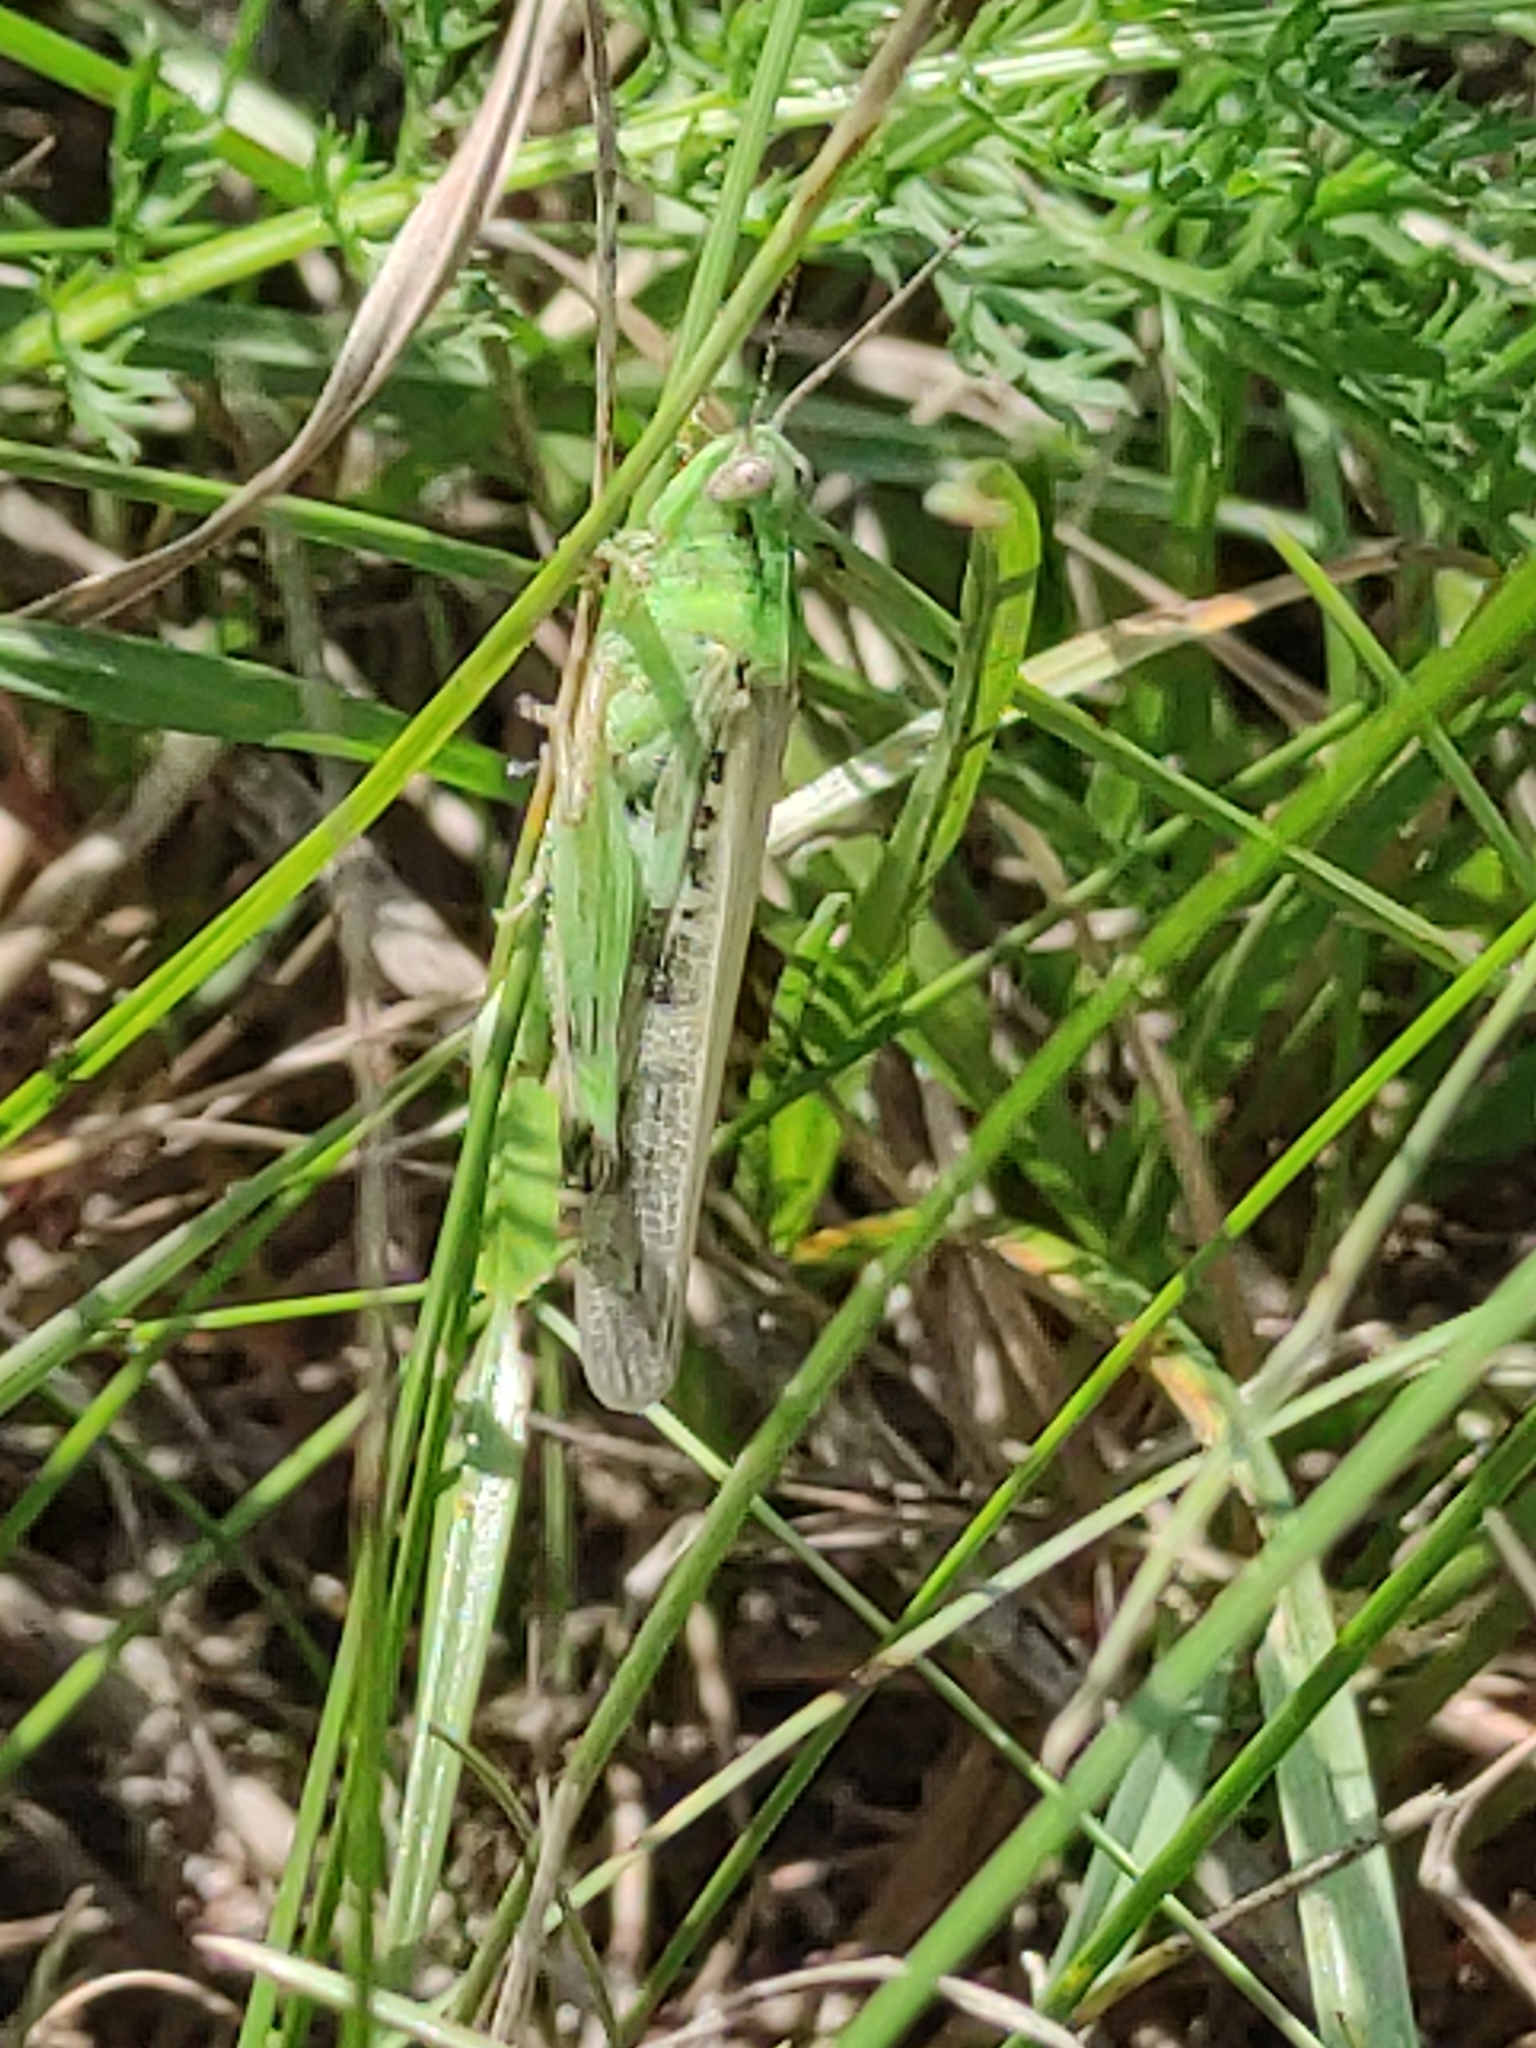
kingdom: Animalia
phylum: Arthropoda
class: Insecta
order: Orthoptera
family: Acrididae
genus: Aiolopus
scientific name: Aiolopus thalassinus
